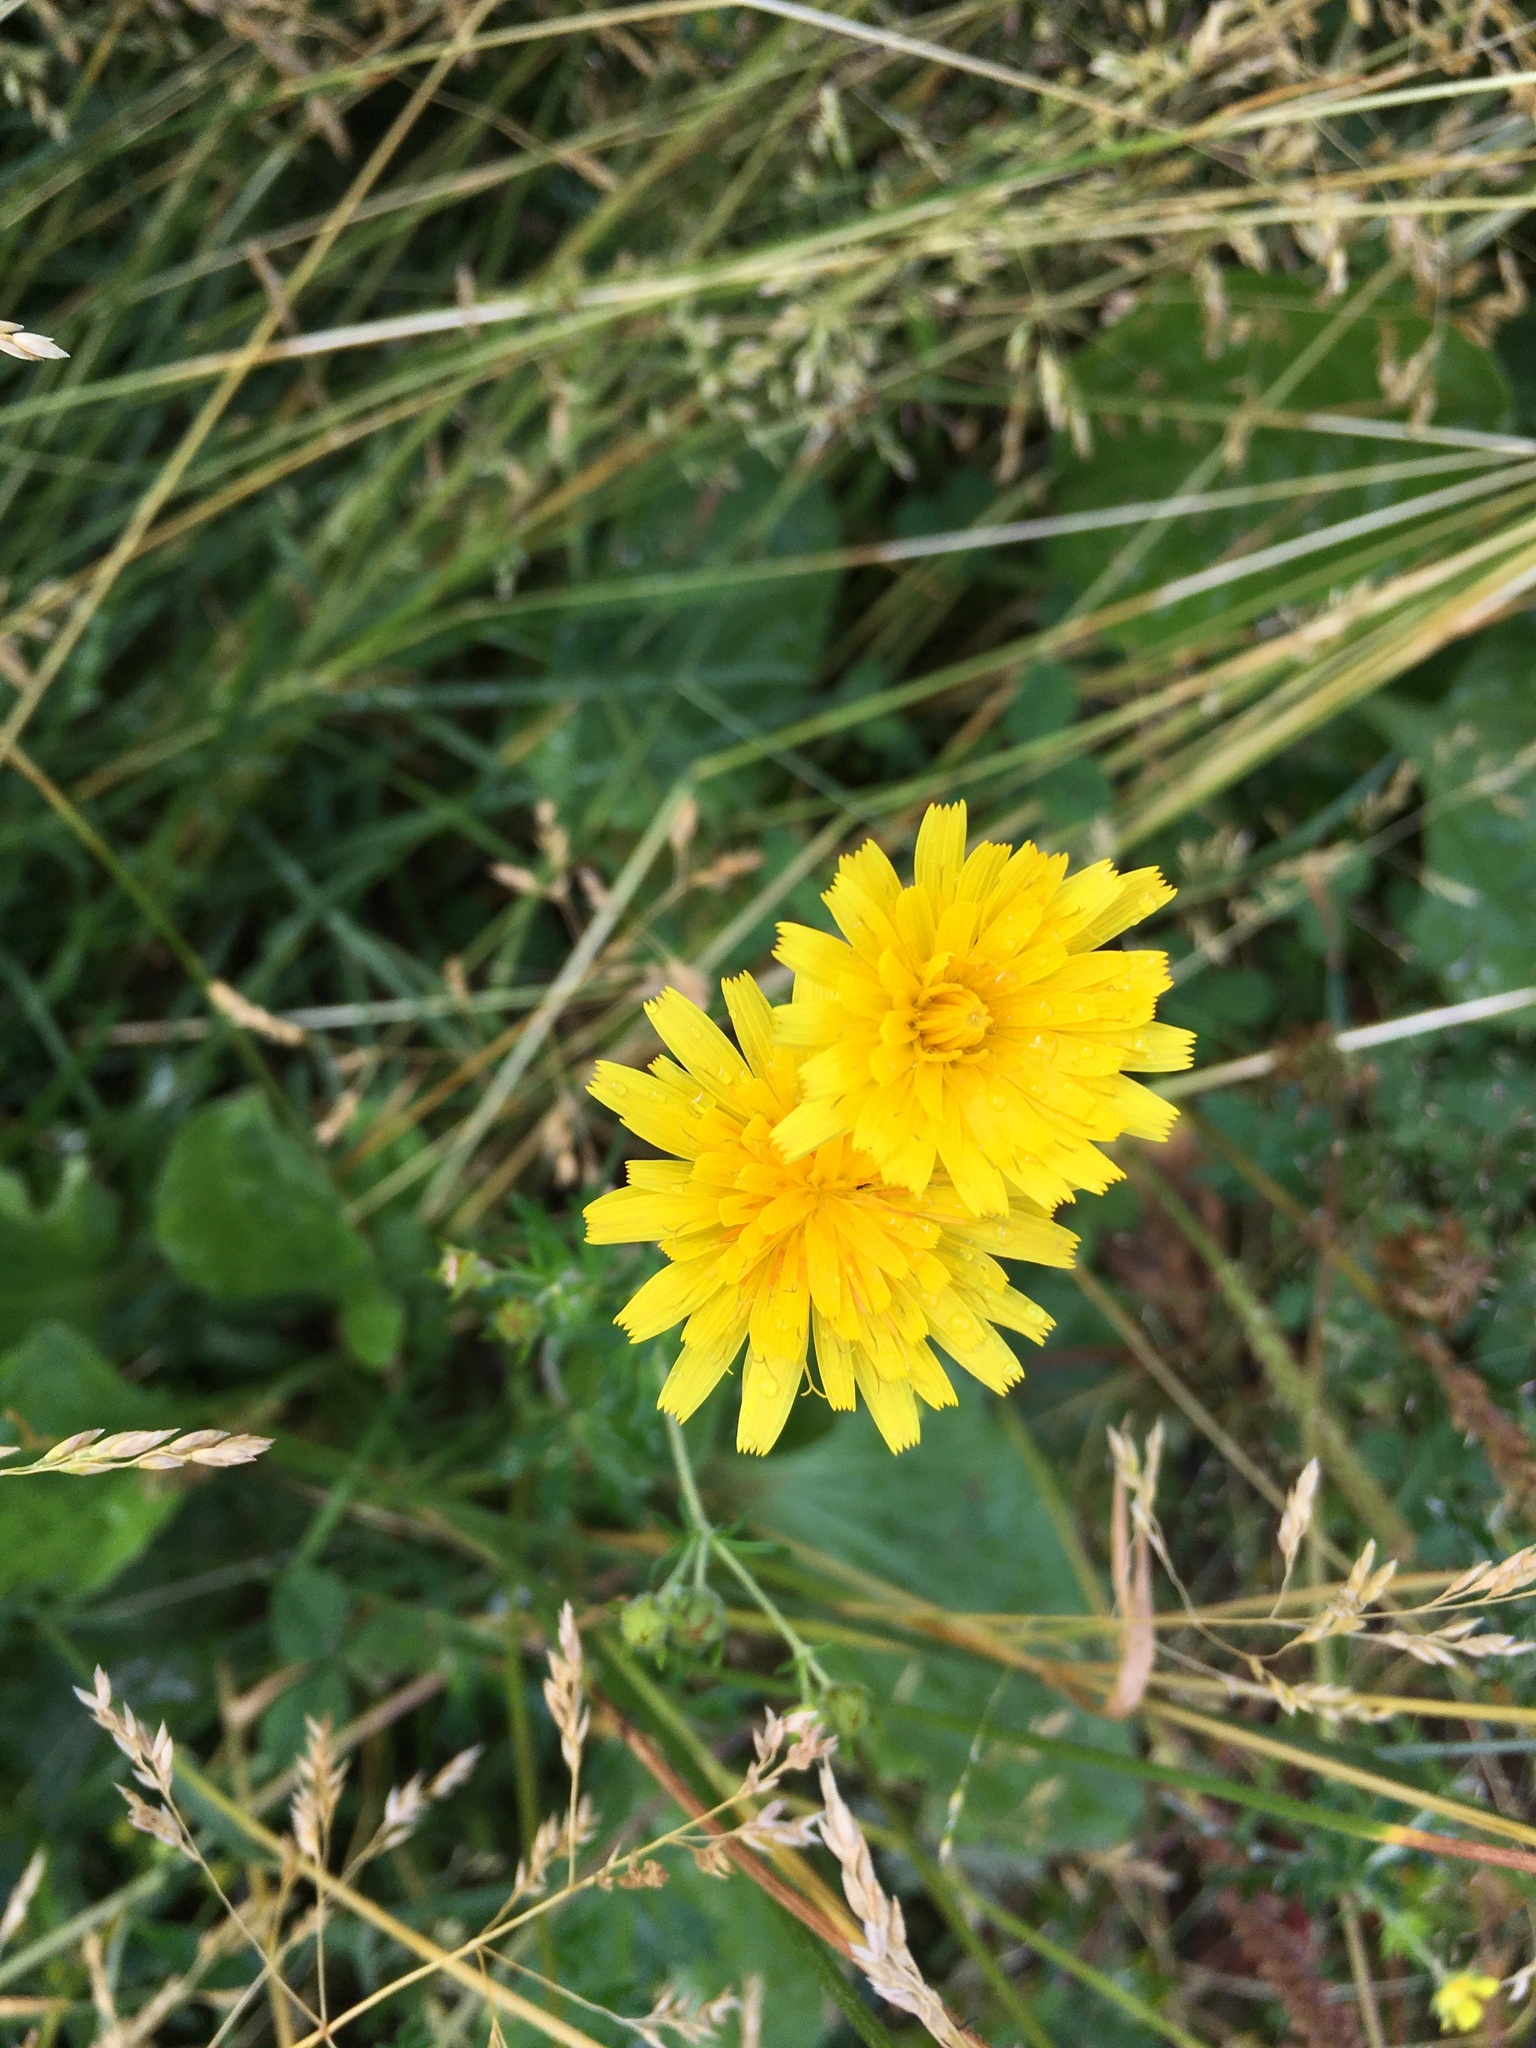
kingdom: Plantae
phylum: Tracheophyta
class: Magnoliopsida
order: Asterales
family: Asteraceae
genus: Scorzoneroides
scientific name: Scorzoneroides autumnalis
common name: Autumn hawkbit
